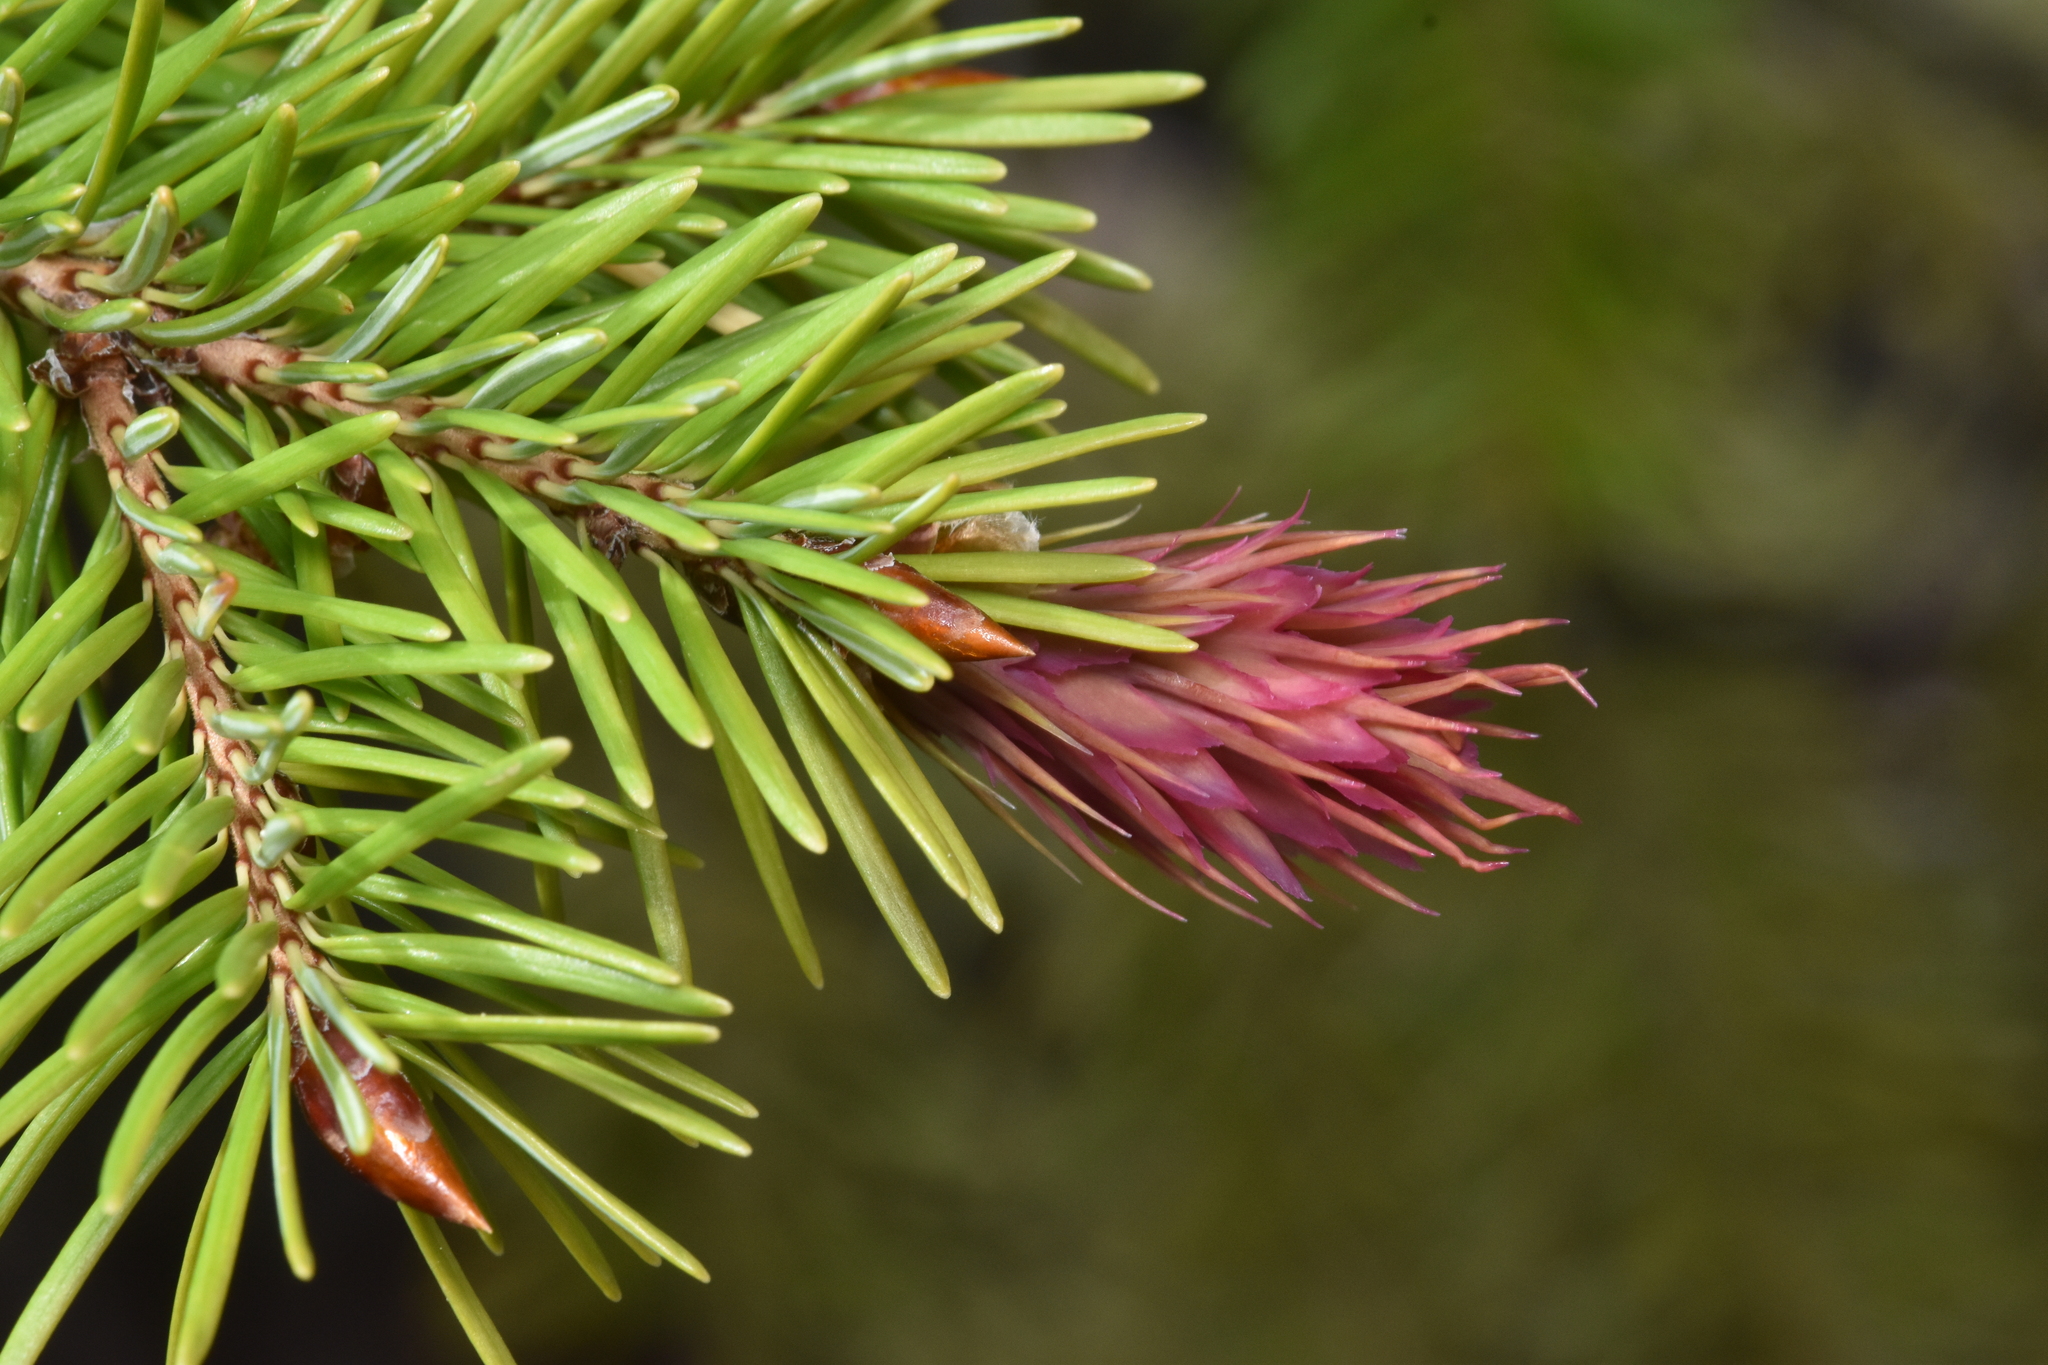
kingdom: Plantae
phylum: Tracheophyta
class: Pinopsida
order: Pinales
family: Pinaceae
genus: Pseudotsuga
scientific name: Pseudotsuga menziesii
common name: Douglas fir
